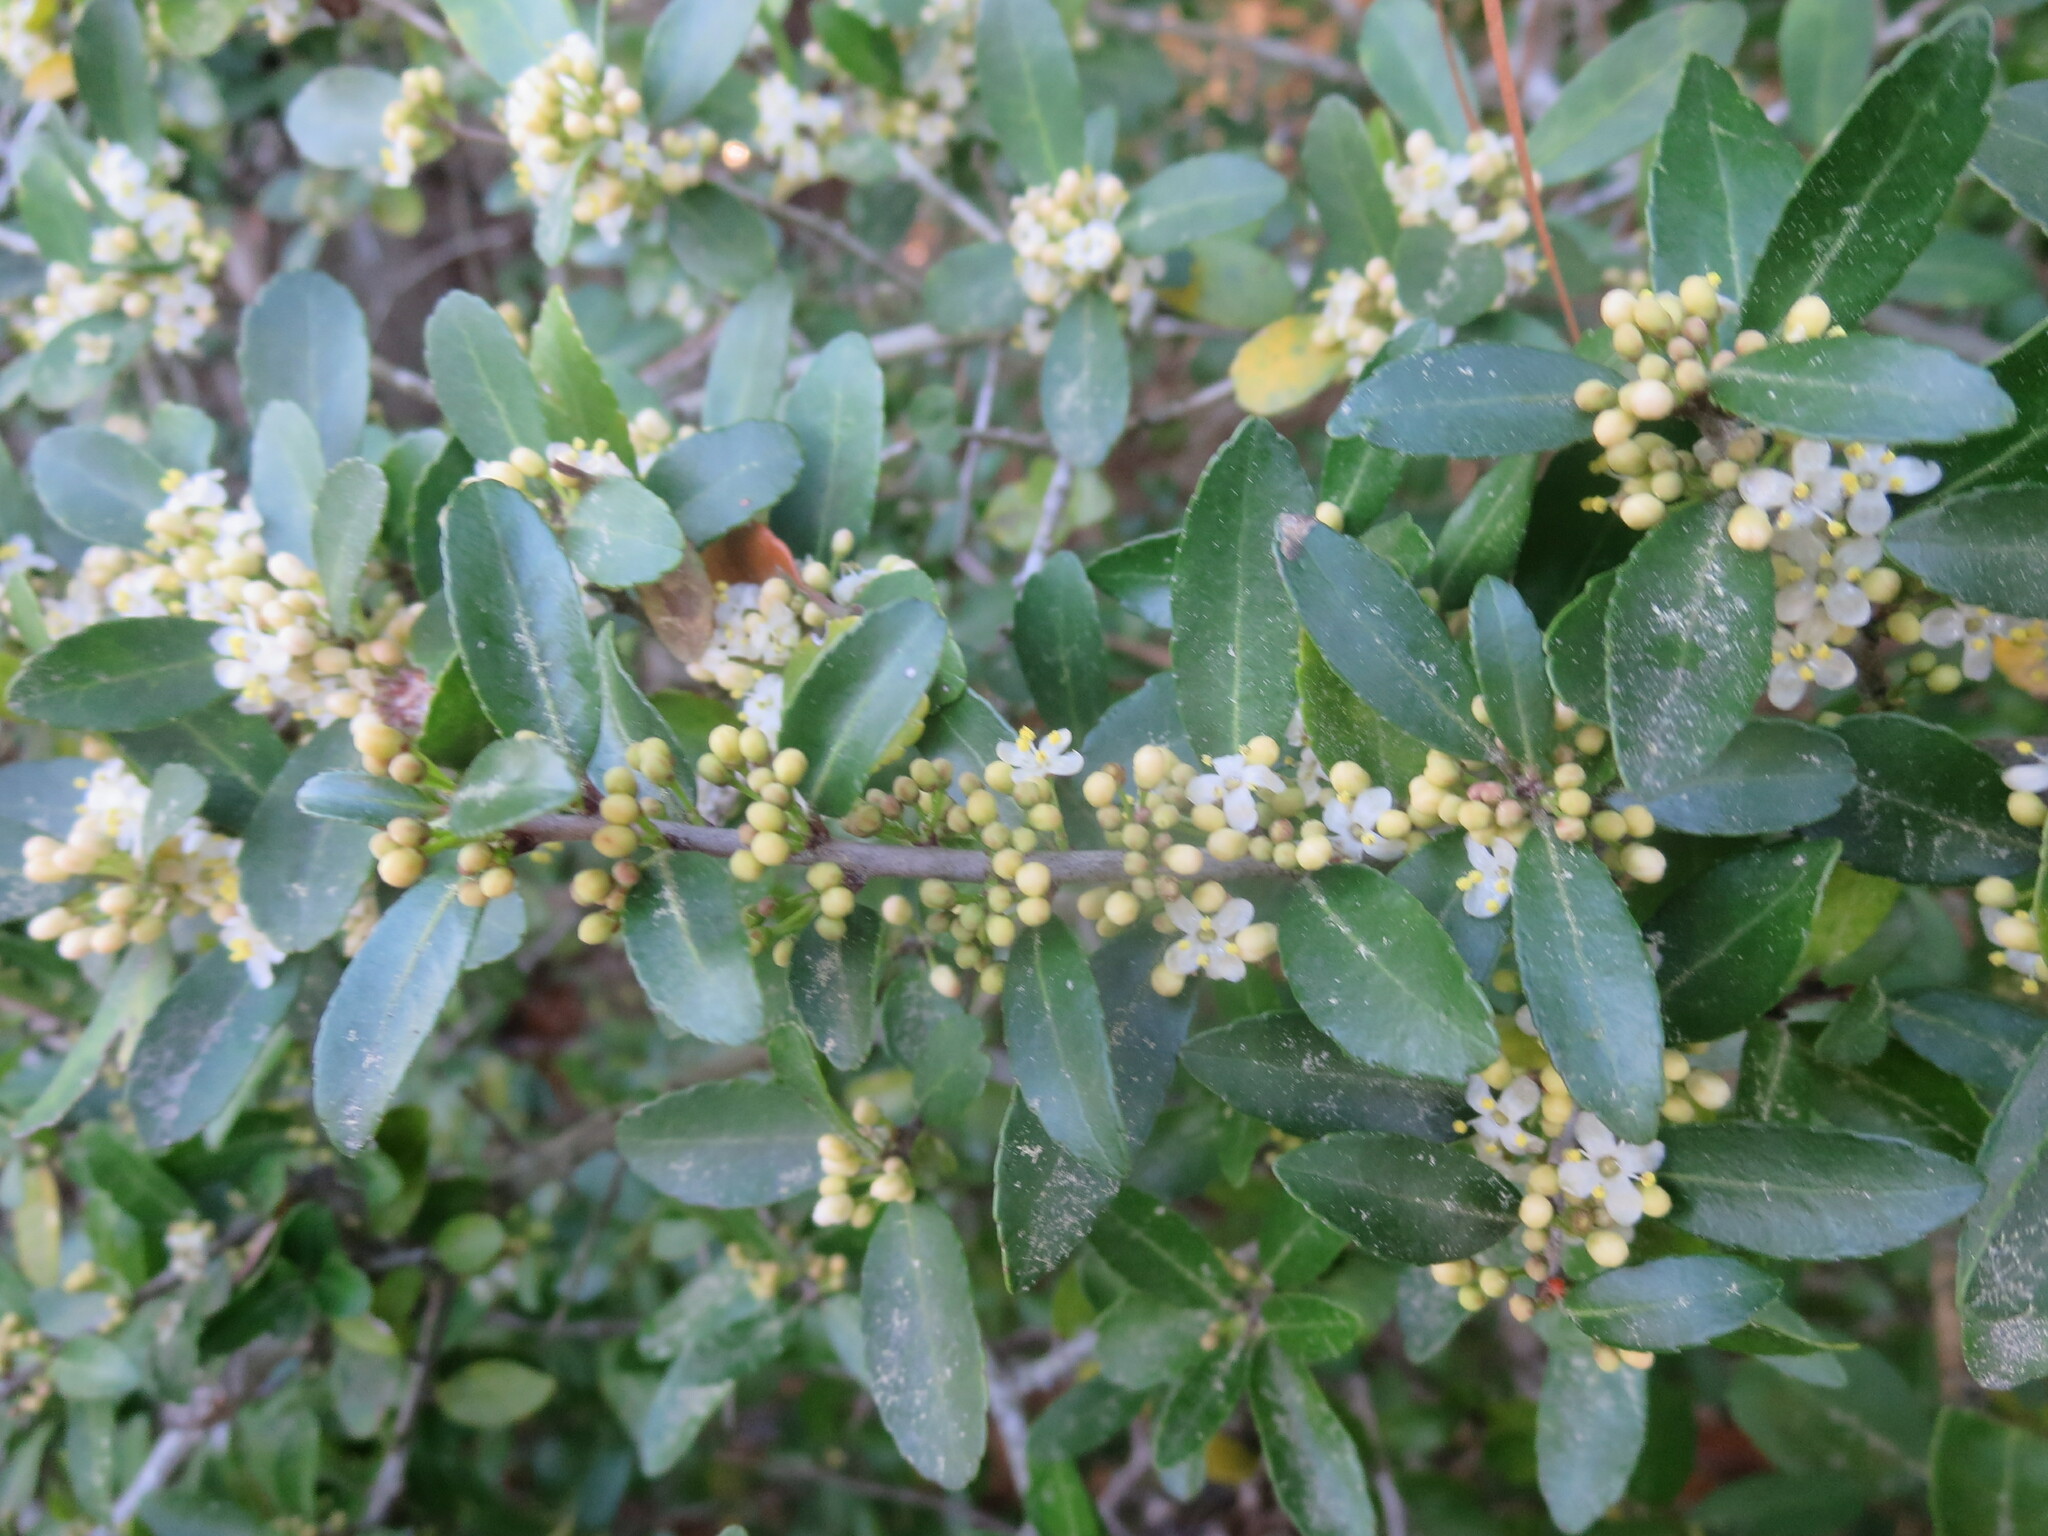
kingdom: Plantae
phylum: Tracheophyta
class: Magnoliopsida
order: Aquifoliales
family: Aquifoliaceae
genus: Ilex
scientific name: Ilex vomitoria
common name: Yaupon holly
